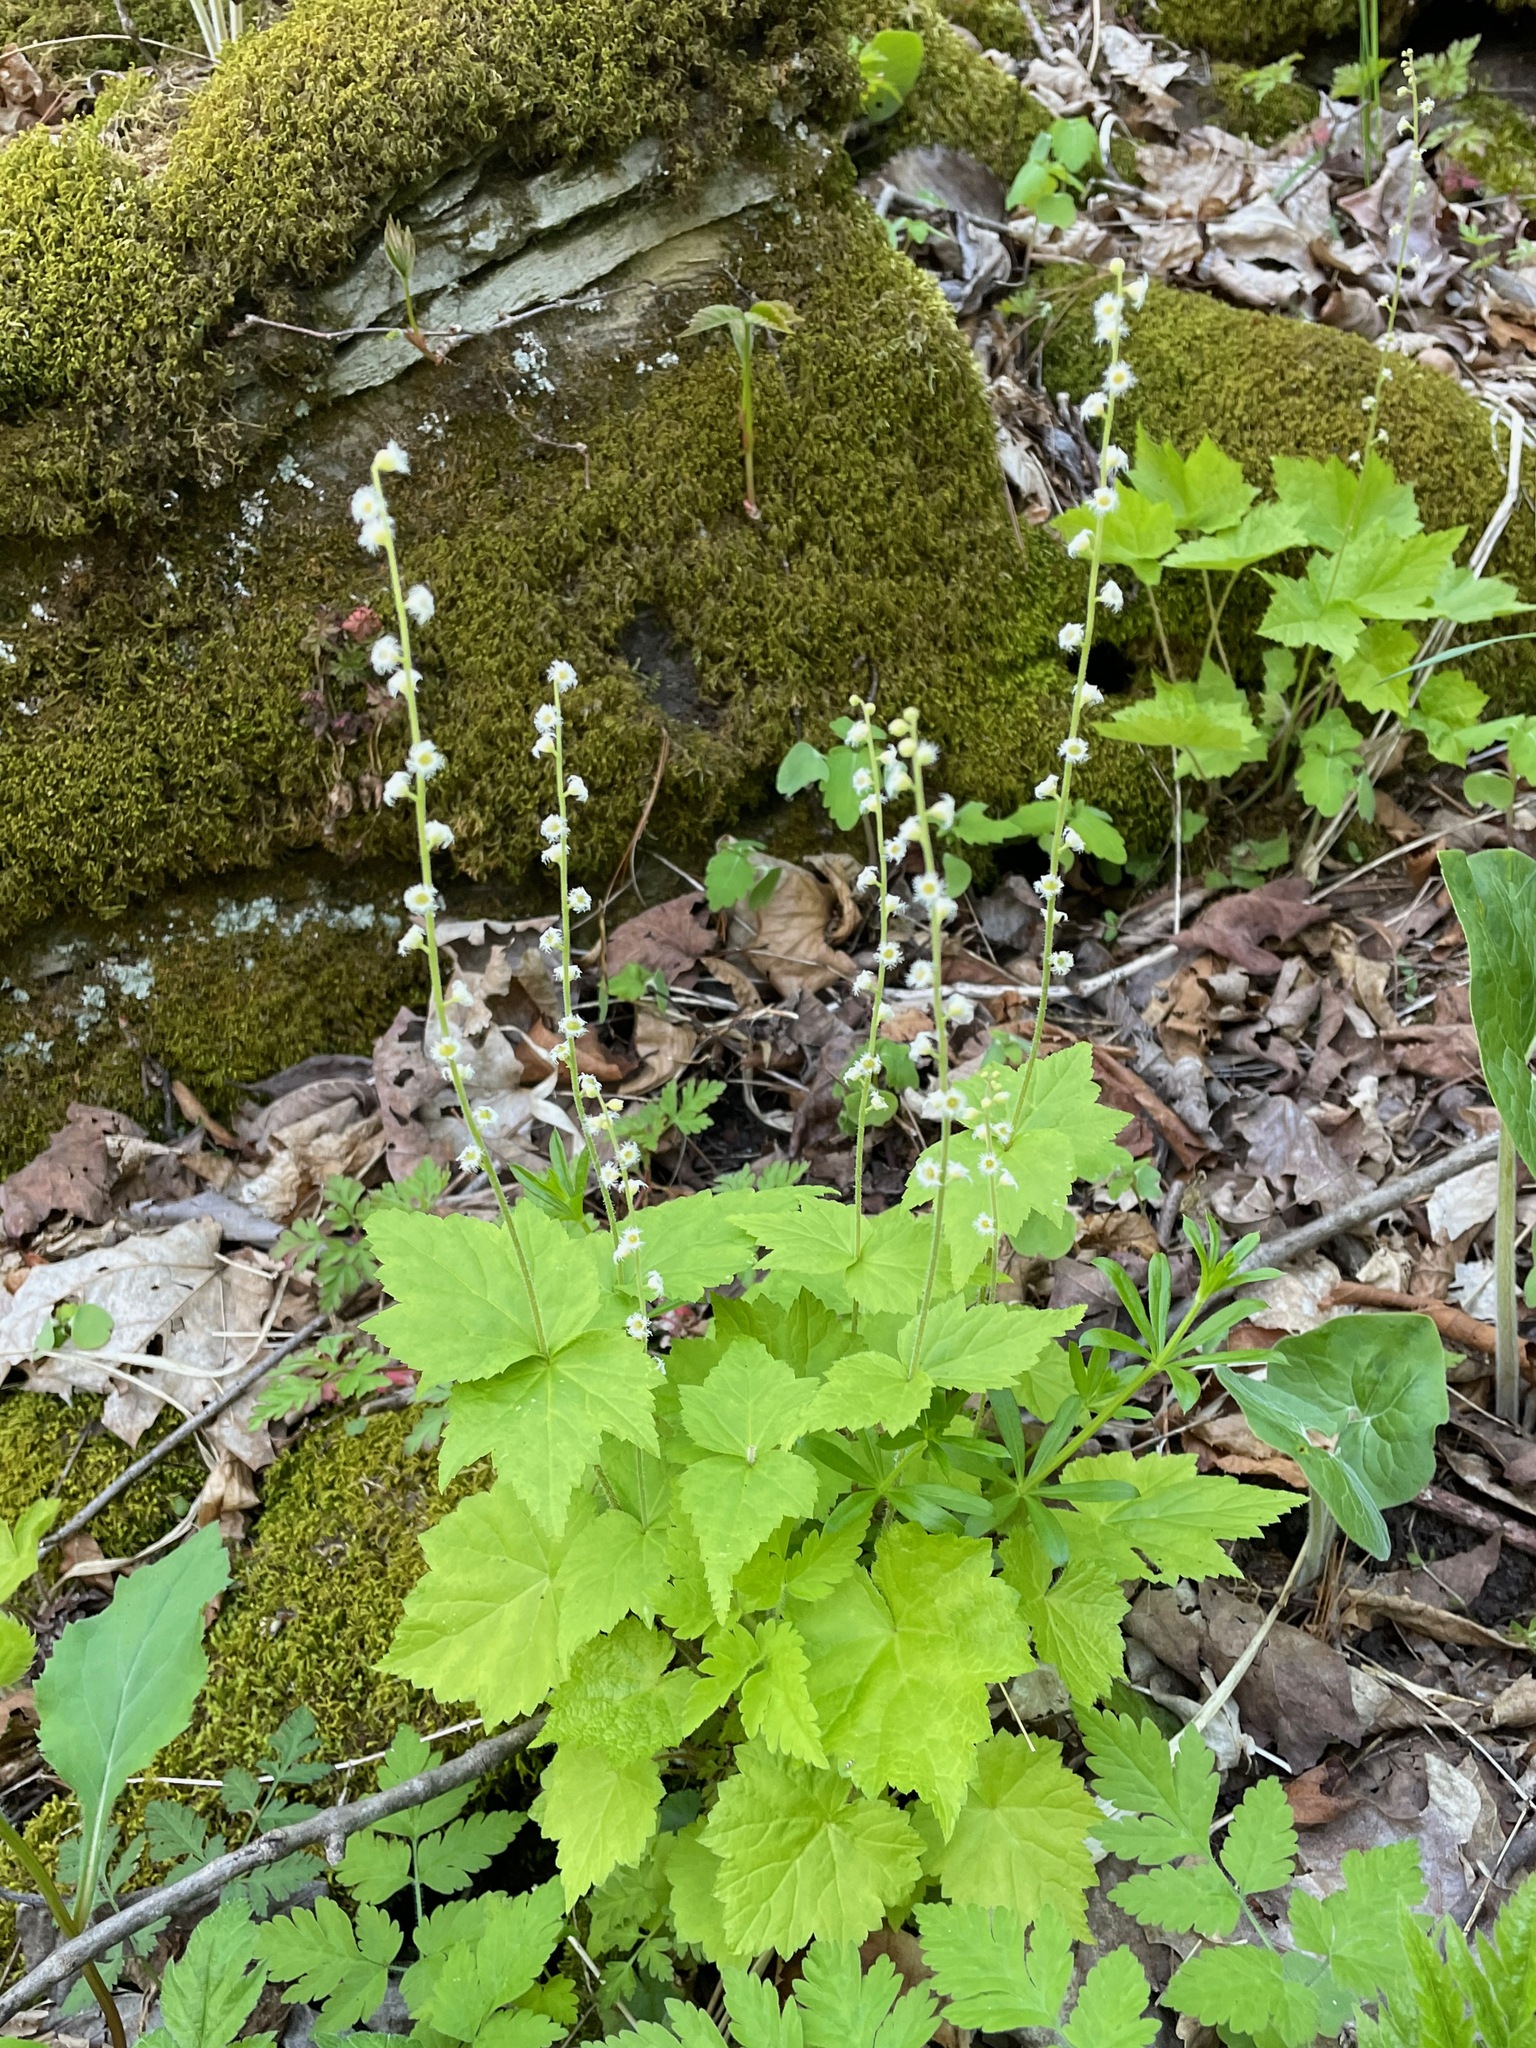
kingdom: Plantae
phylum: Tracheophyta
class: Magnoliopsida
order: Saxifragales
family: Saxifragaceae
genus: Mitella
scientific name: Mitella diphylla
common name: Coolwort
